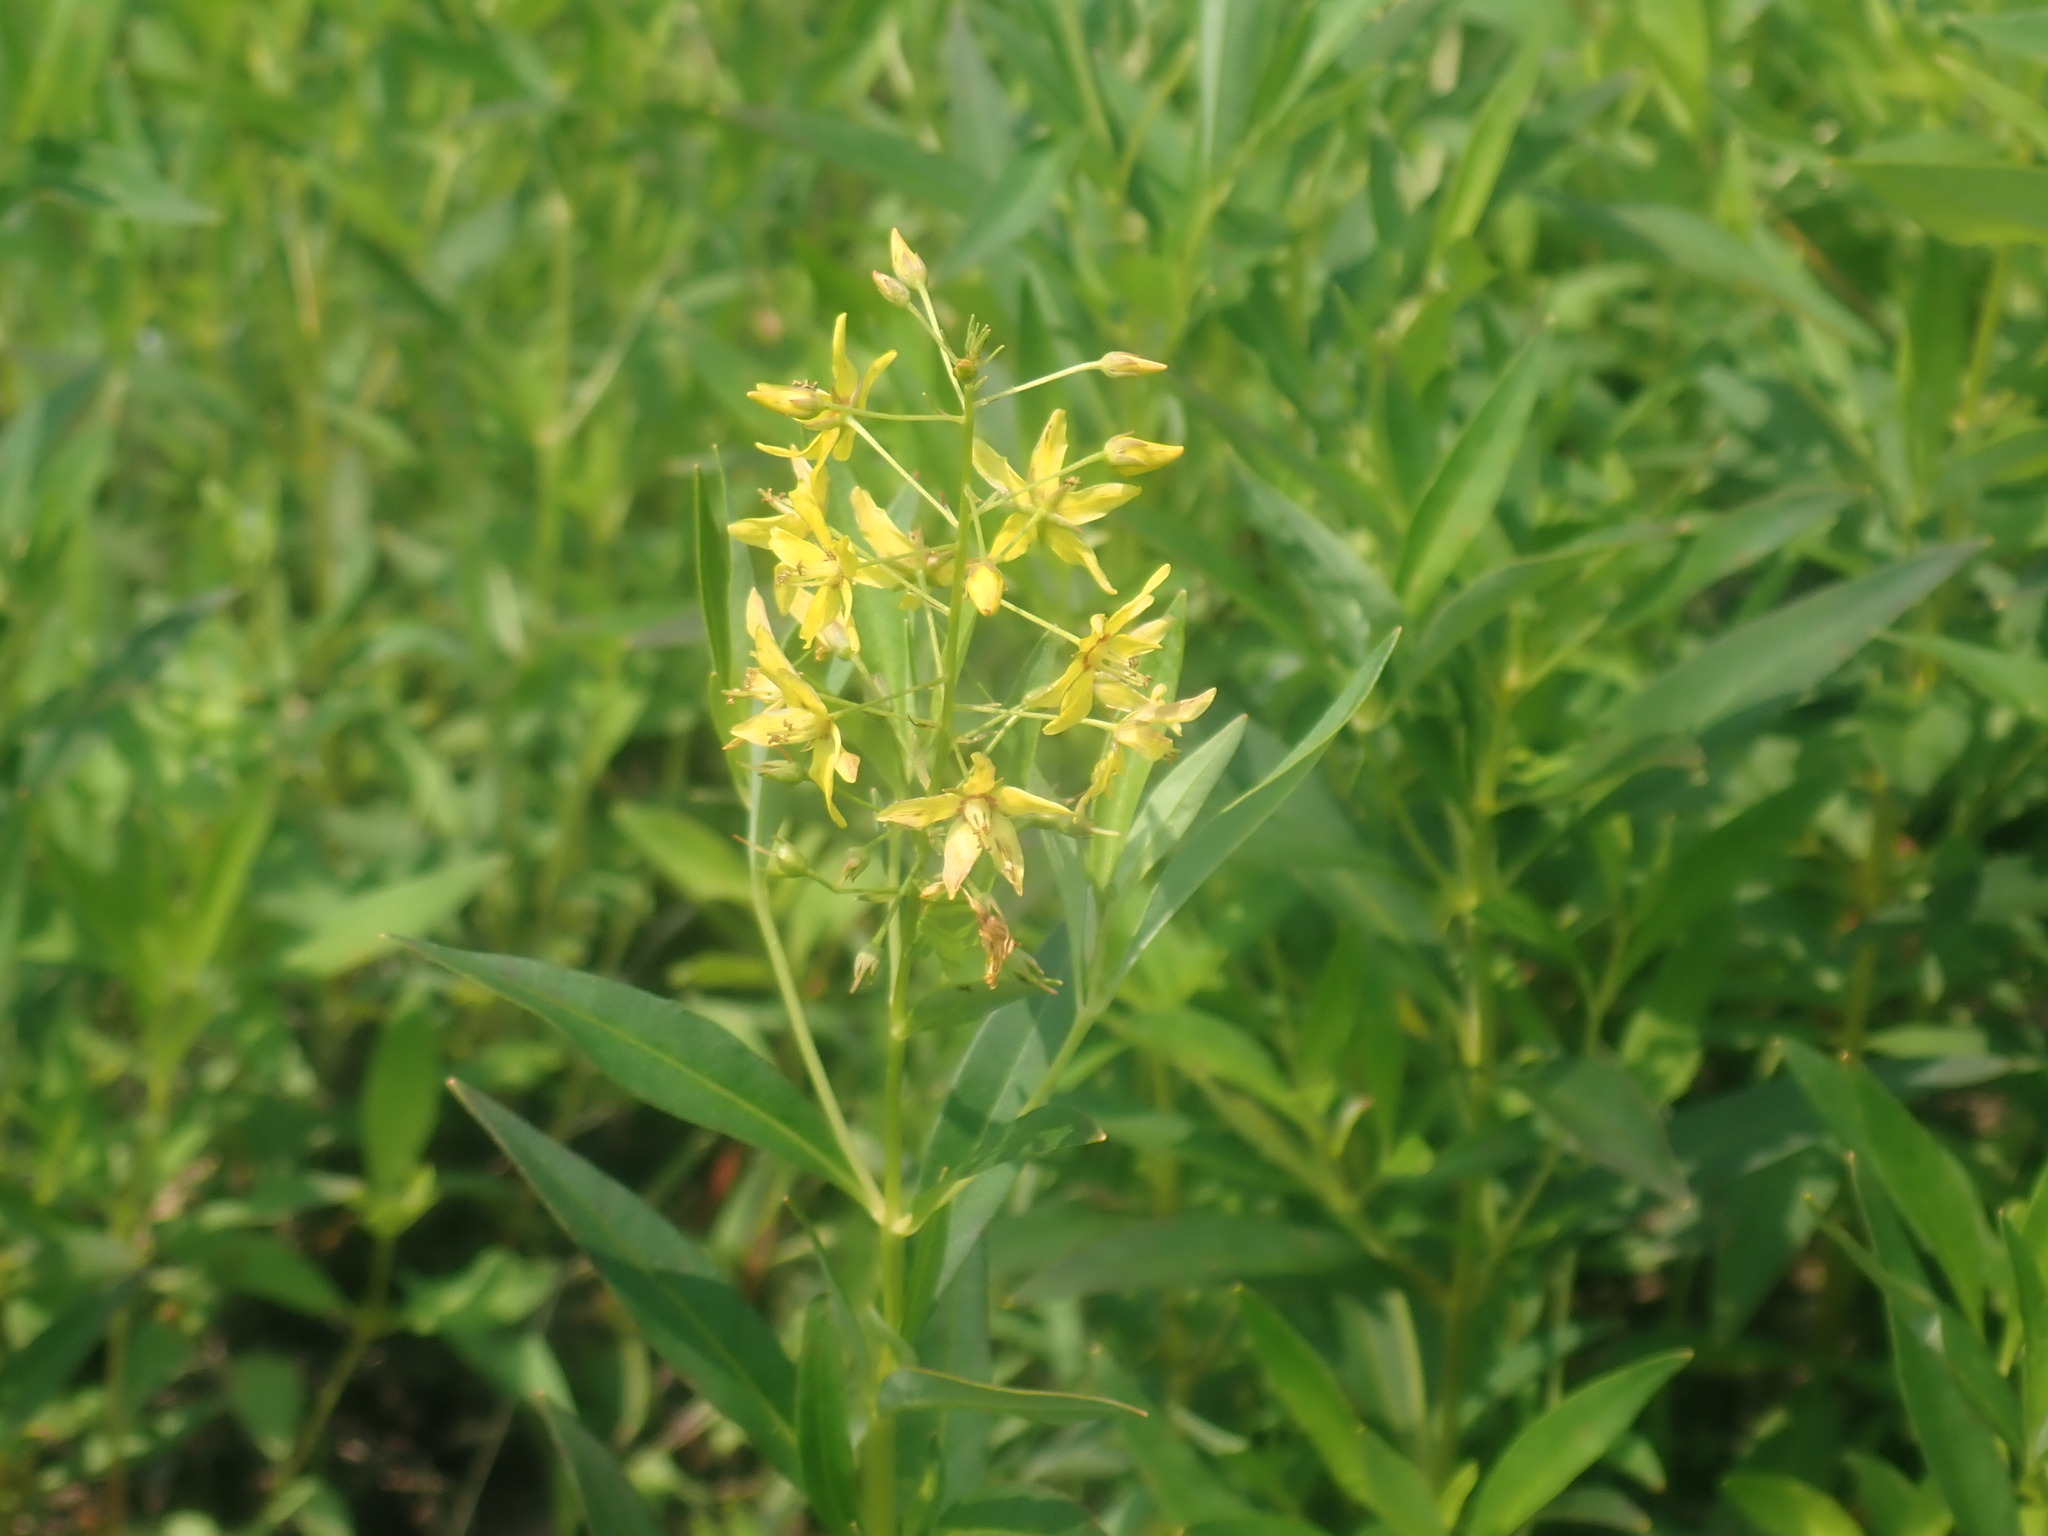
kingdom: Plantae
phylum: Tracheophyta
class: Magnoliopsida
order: Ericales
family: Primulaceae
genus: Lysimachia
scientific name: Lysimachia terrestris
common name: Lake loosestrife
